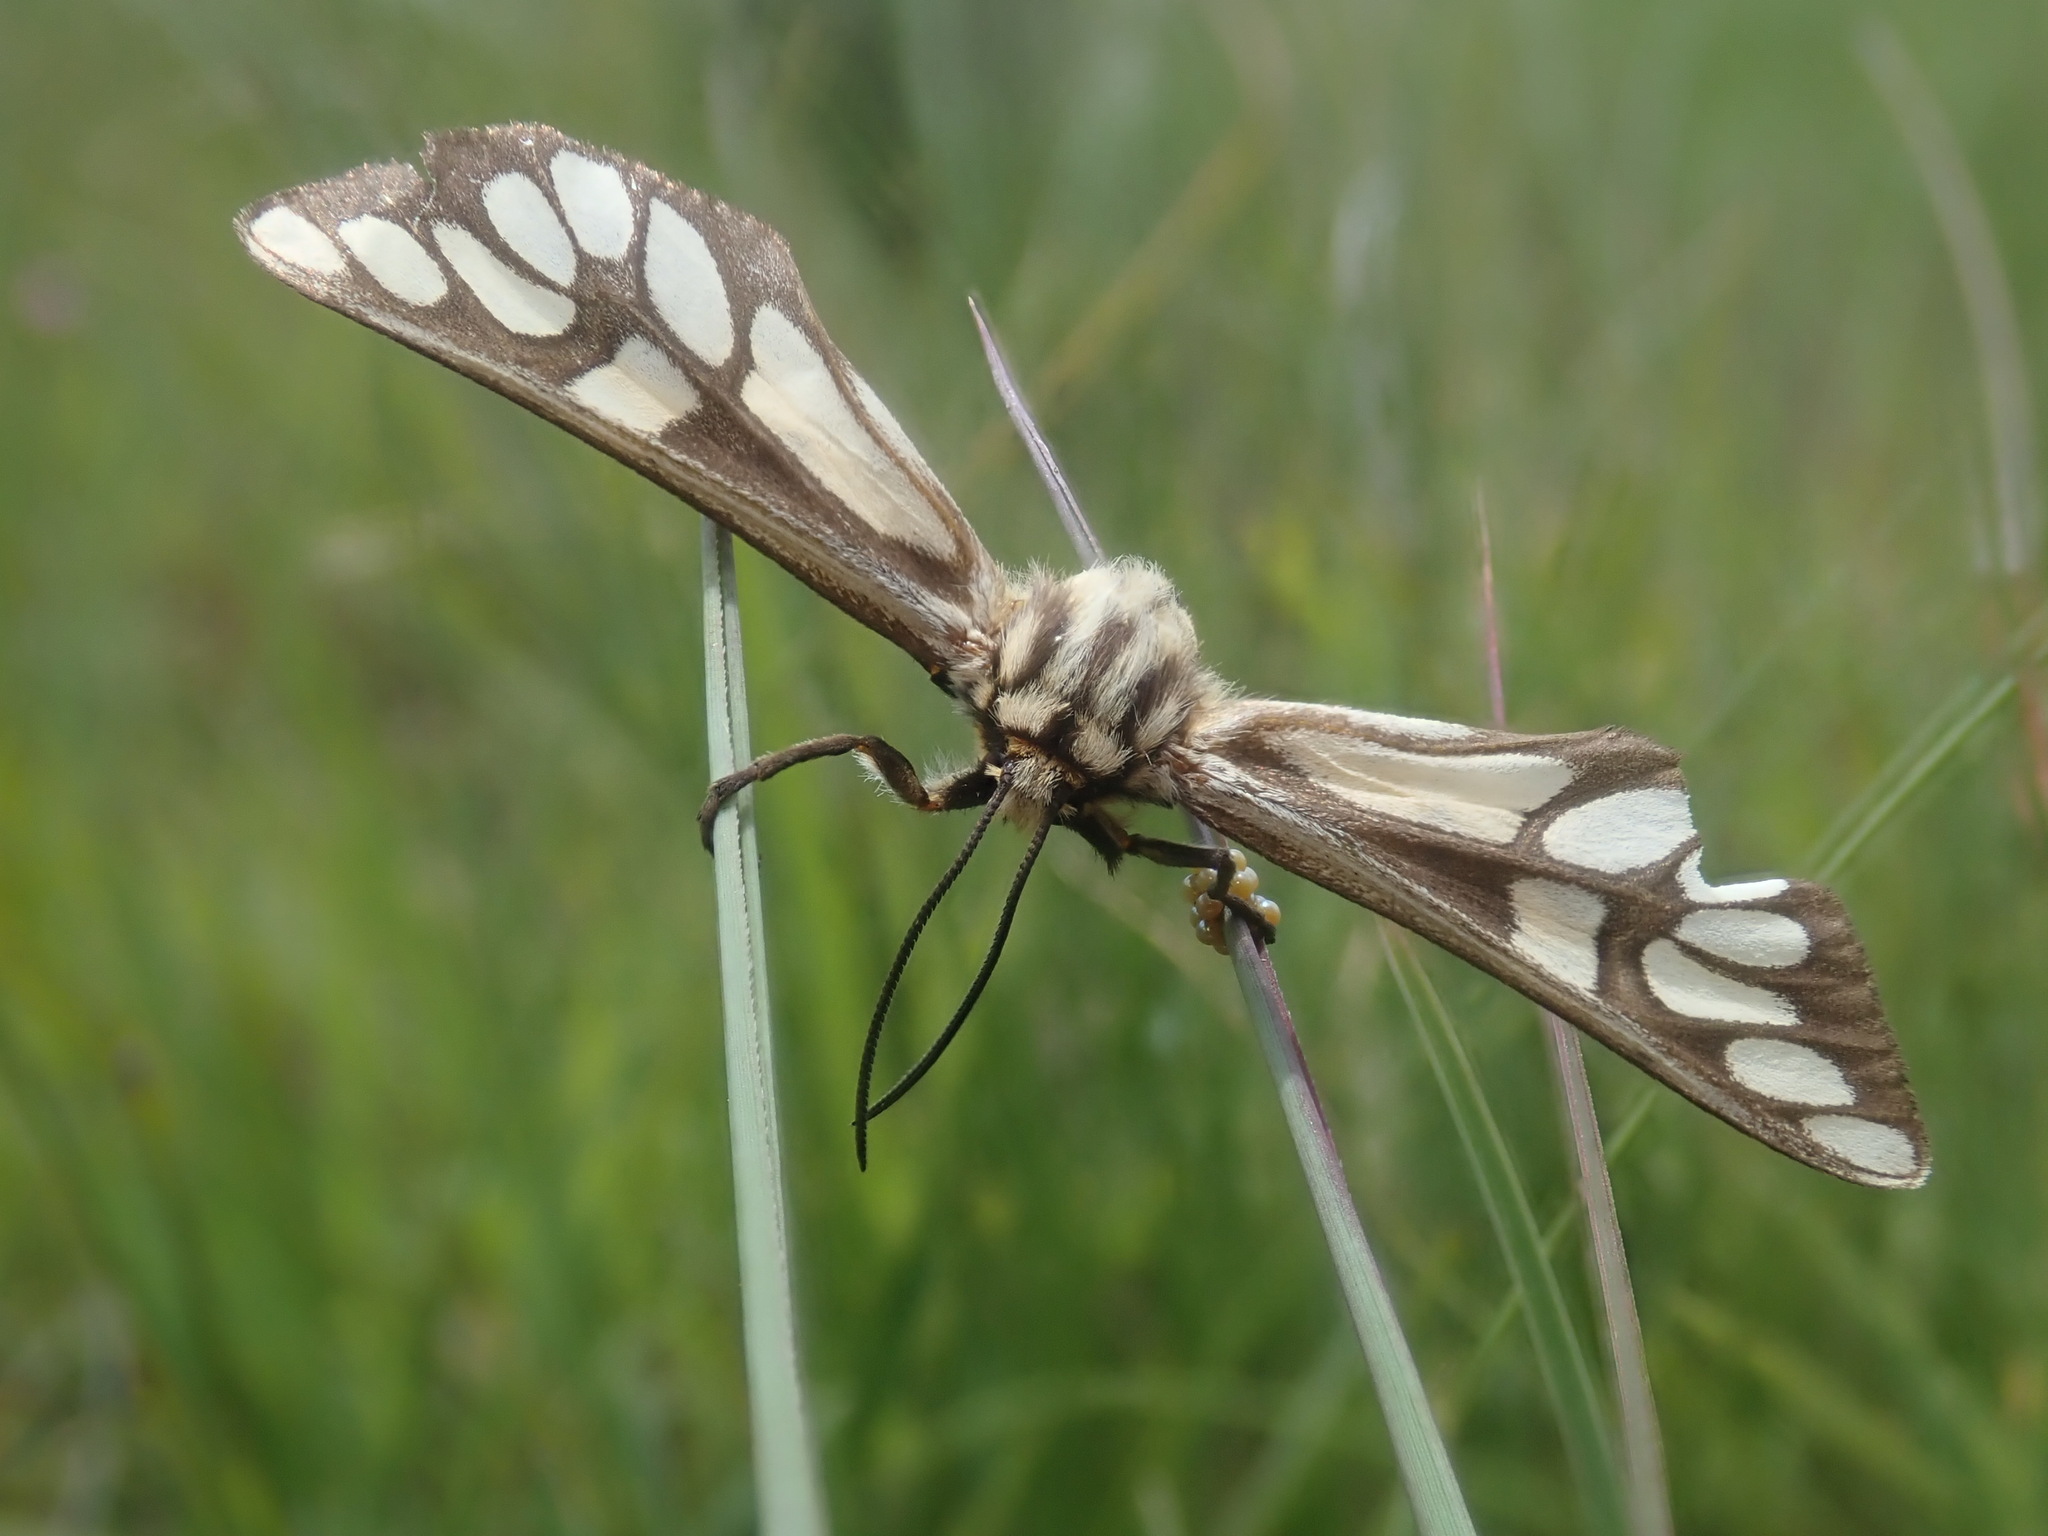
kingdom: Animalia
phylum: Arthropoda
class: Insecta
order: Lepidoptera
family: Erebidae
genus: Thyretes
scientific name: Thyretes montana
